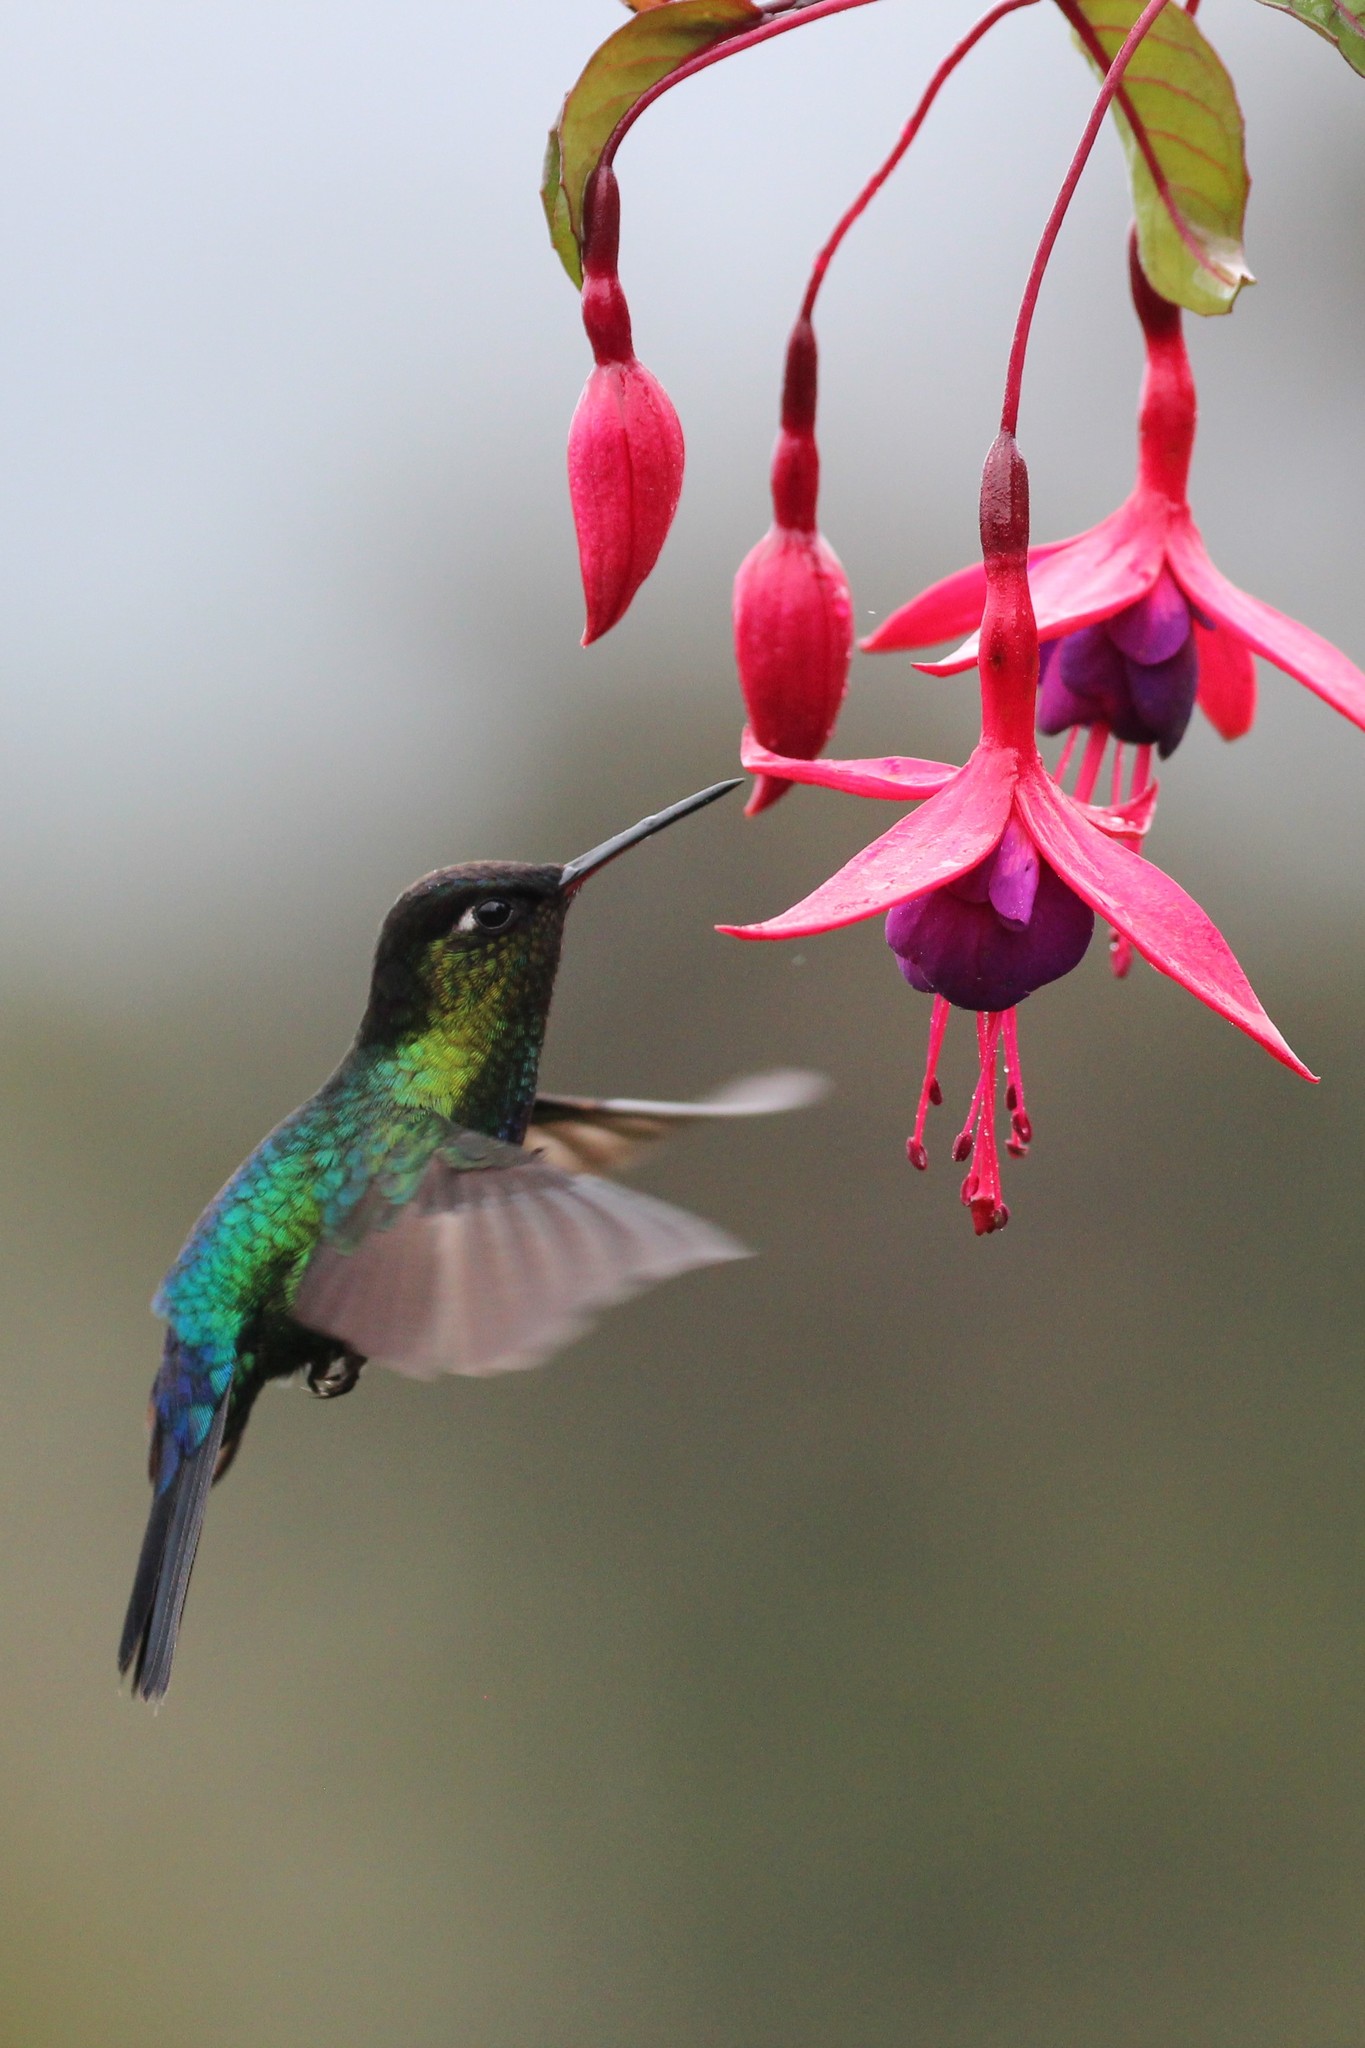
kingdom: Animalia
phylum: Chordata
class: Aves
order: Apodiformes
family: Trochilidae
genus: Panterpe
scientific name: Panterpe insignis
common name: Fiery-throated hummingbird
